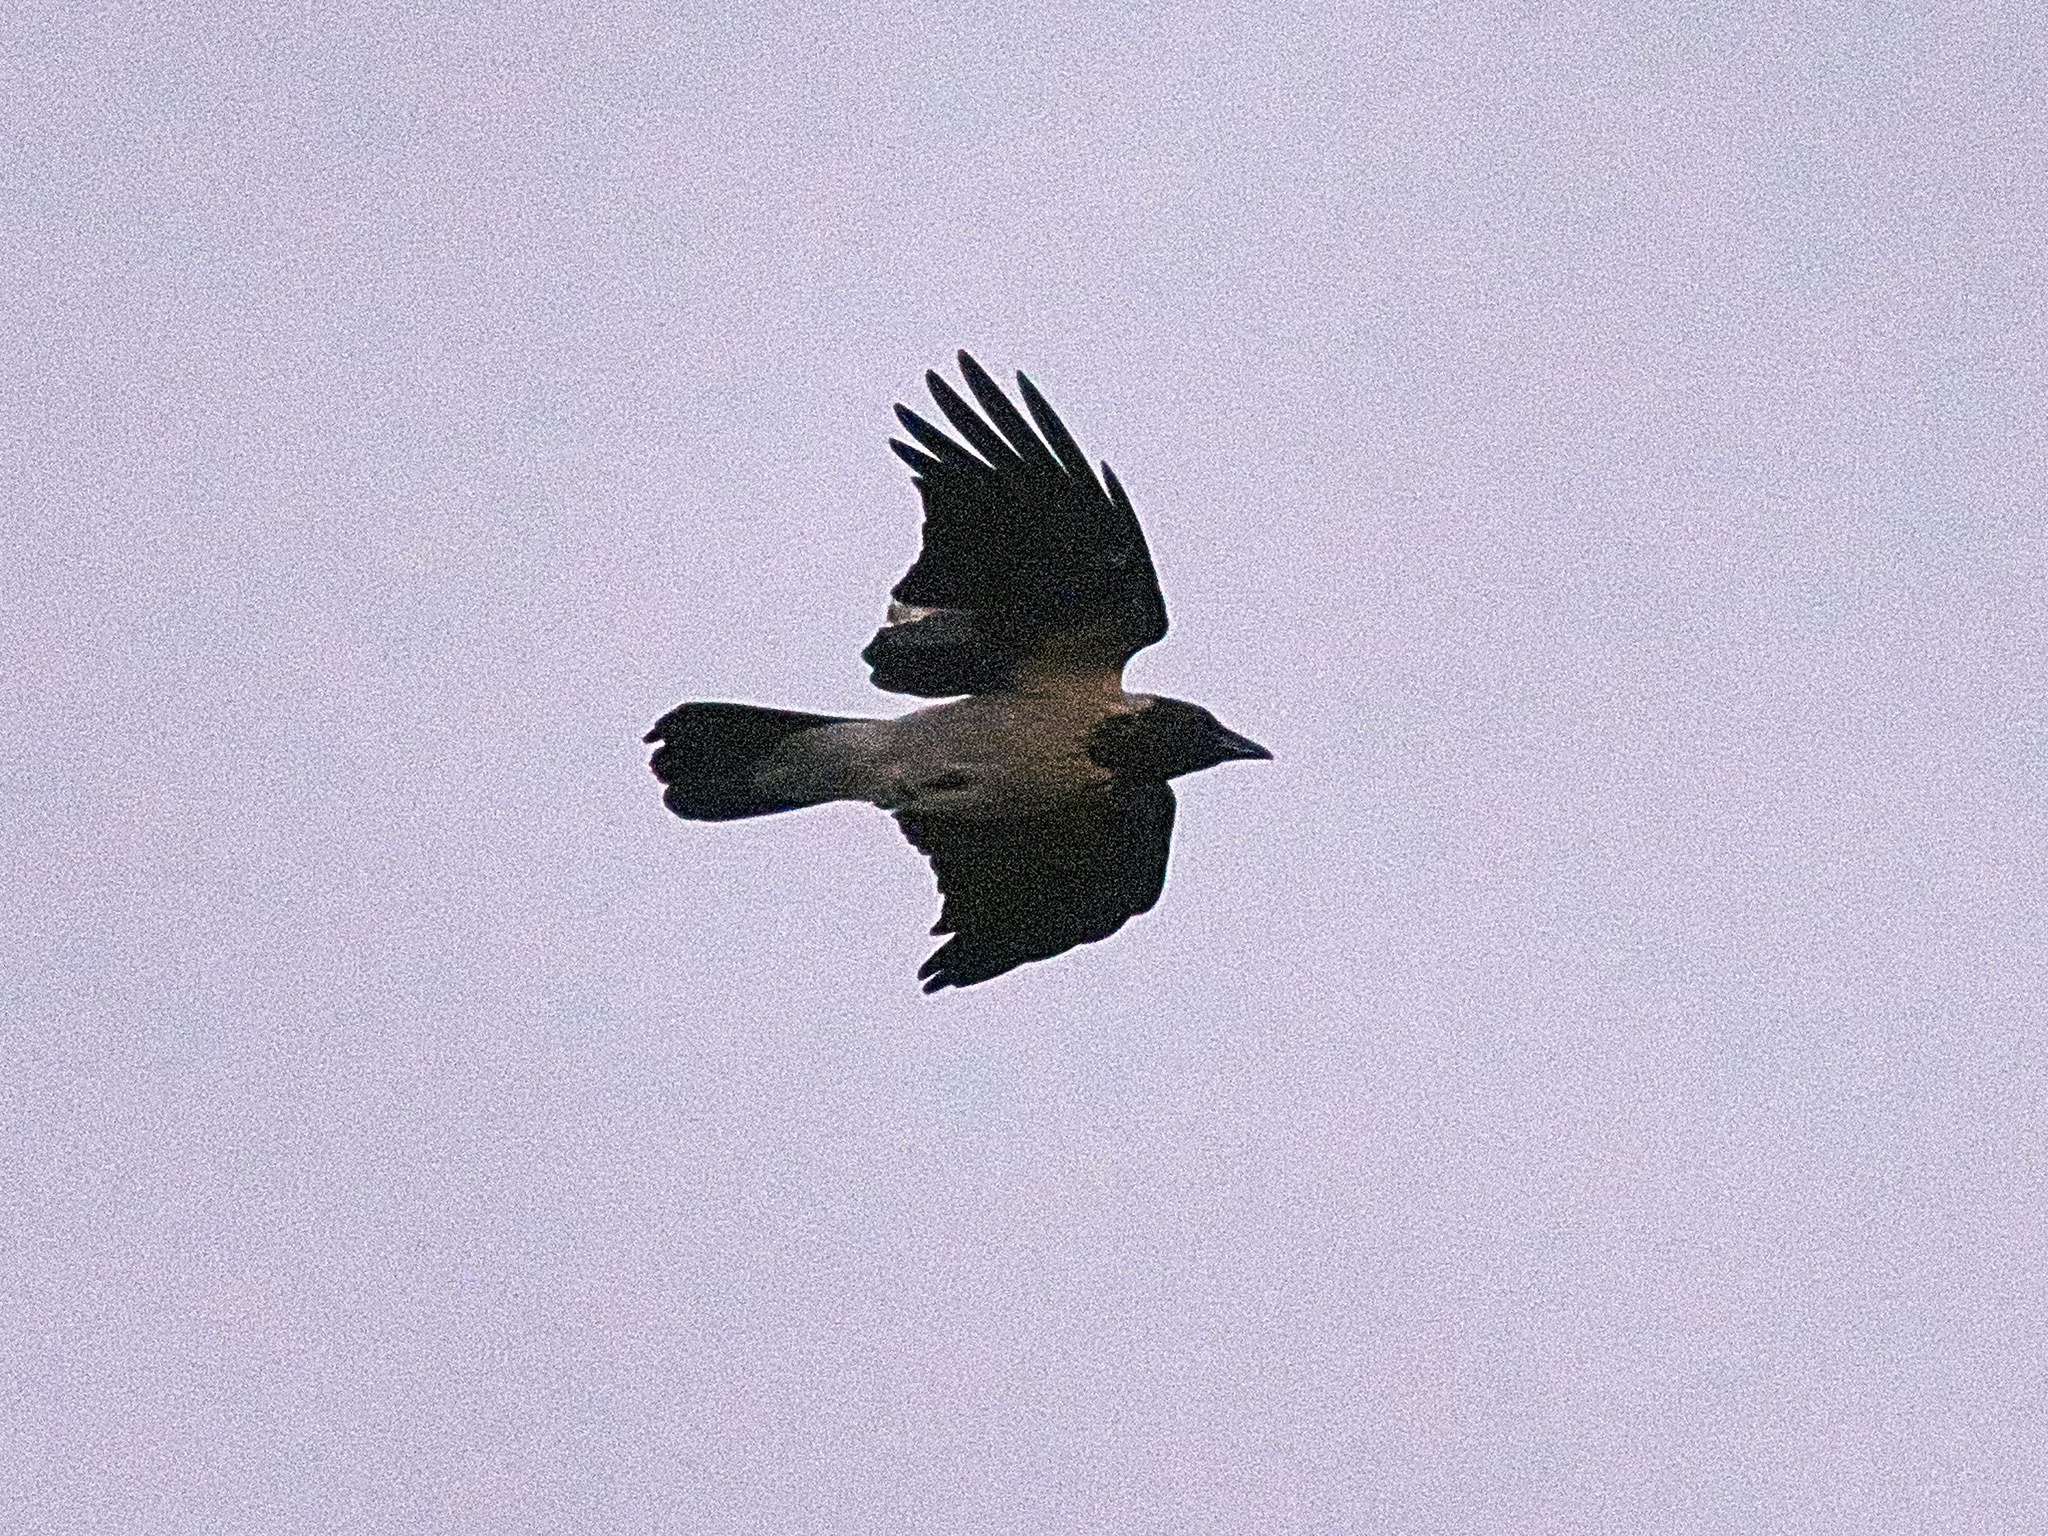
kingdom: Animalia
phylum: Chordata
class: Aves
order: Passeriformes
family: Corvidae
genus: Corvus
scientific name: Corvus cornix
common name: Hooded crow
